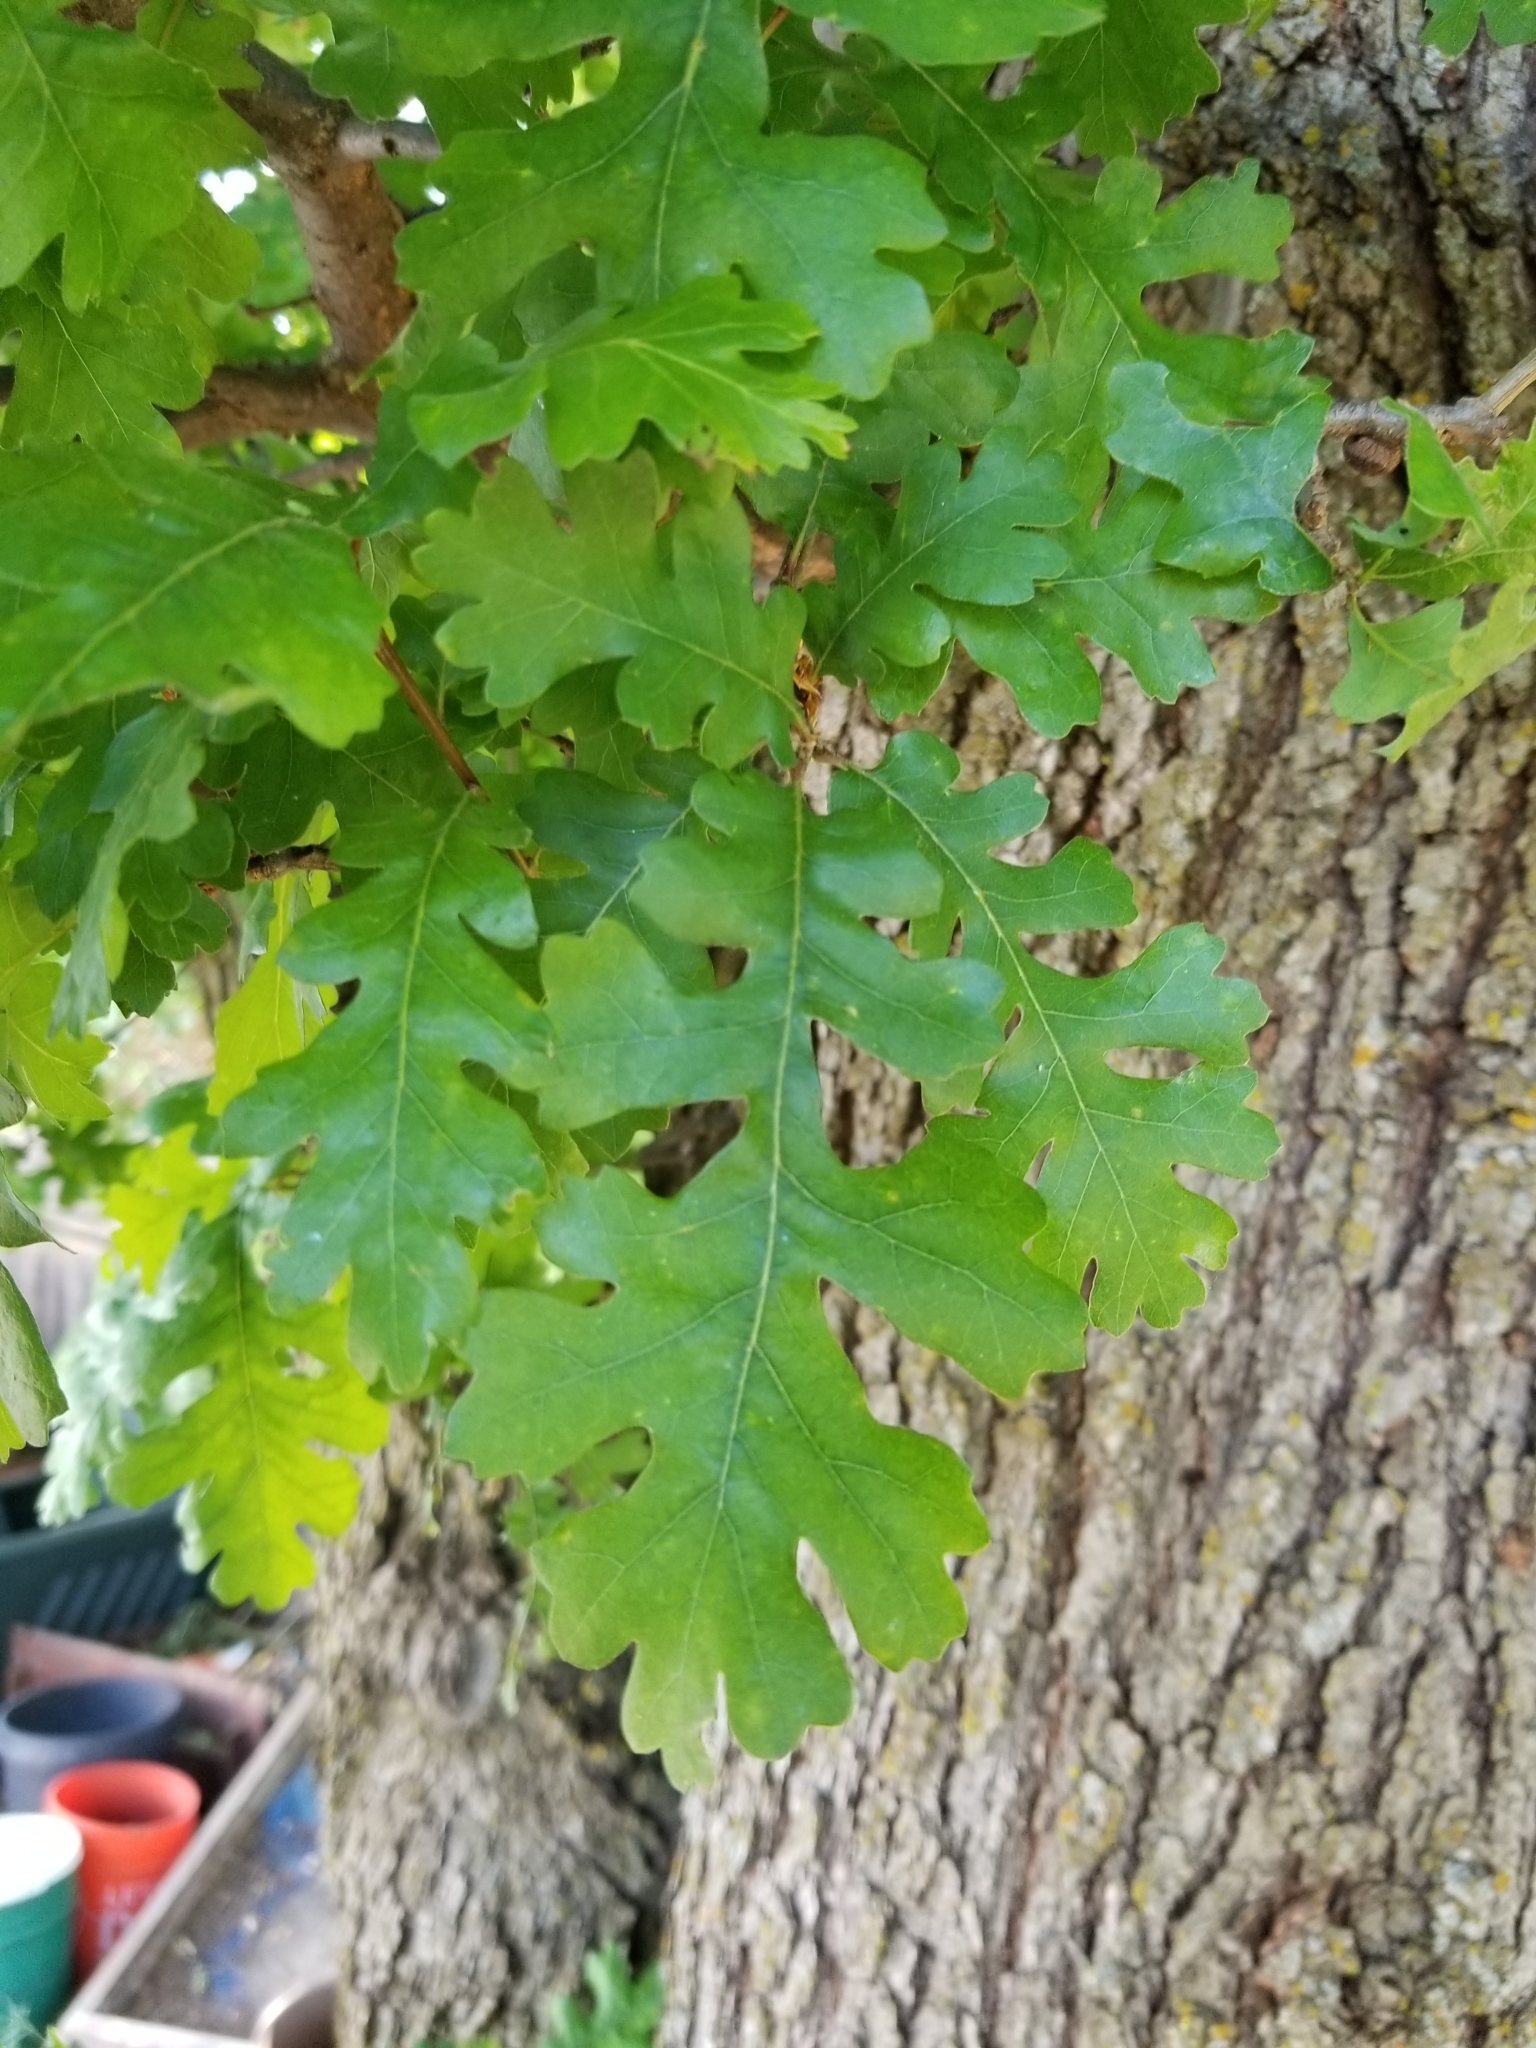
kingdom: Plantae
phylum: Tracheophyta
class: Magnoliopsida
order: Fagales
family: Fagaceae
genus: Quercus
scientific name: Quercus lobata
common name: Valley oak
